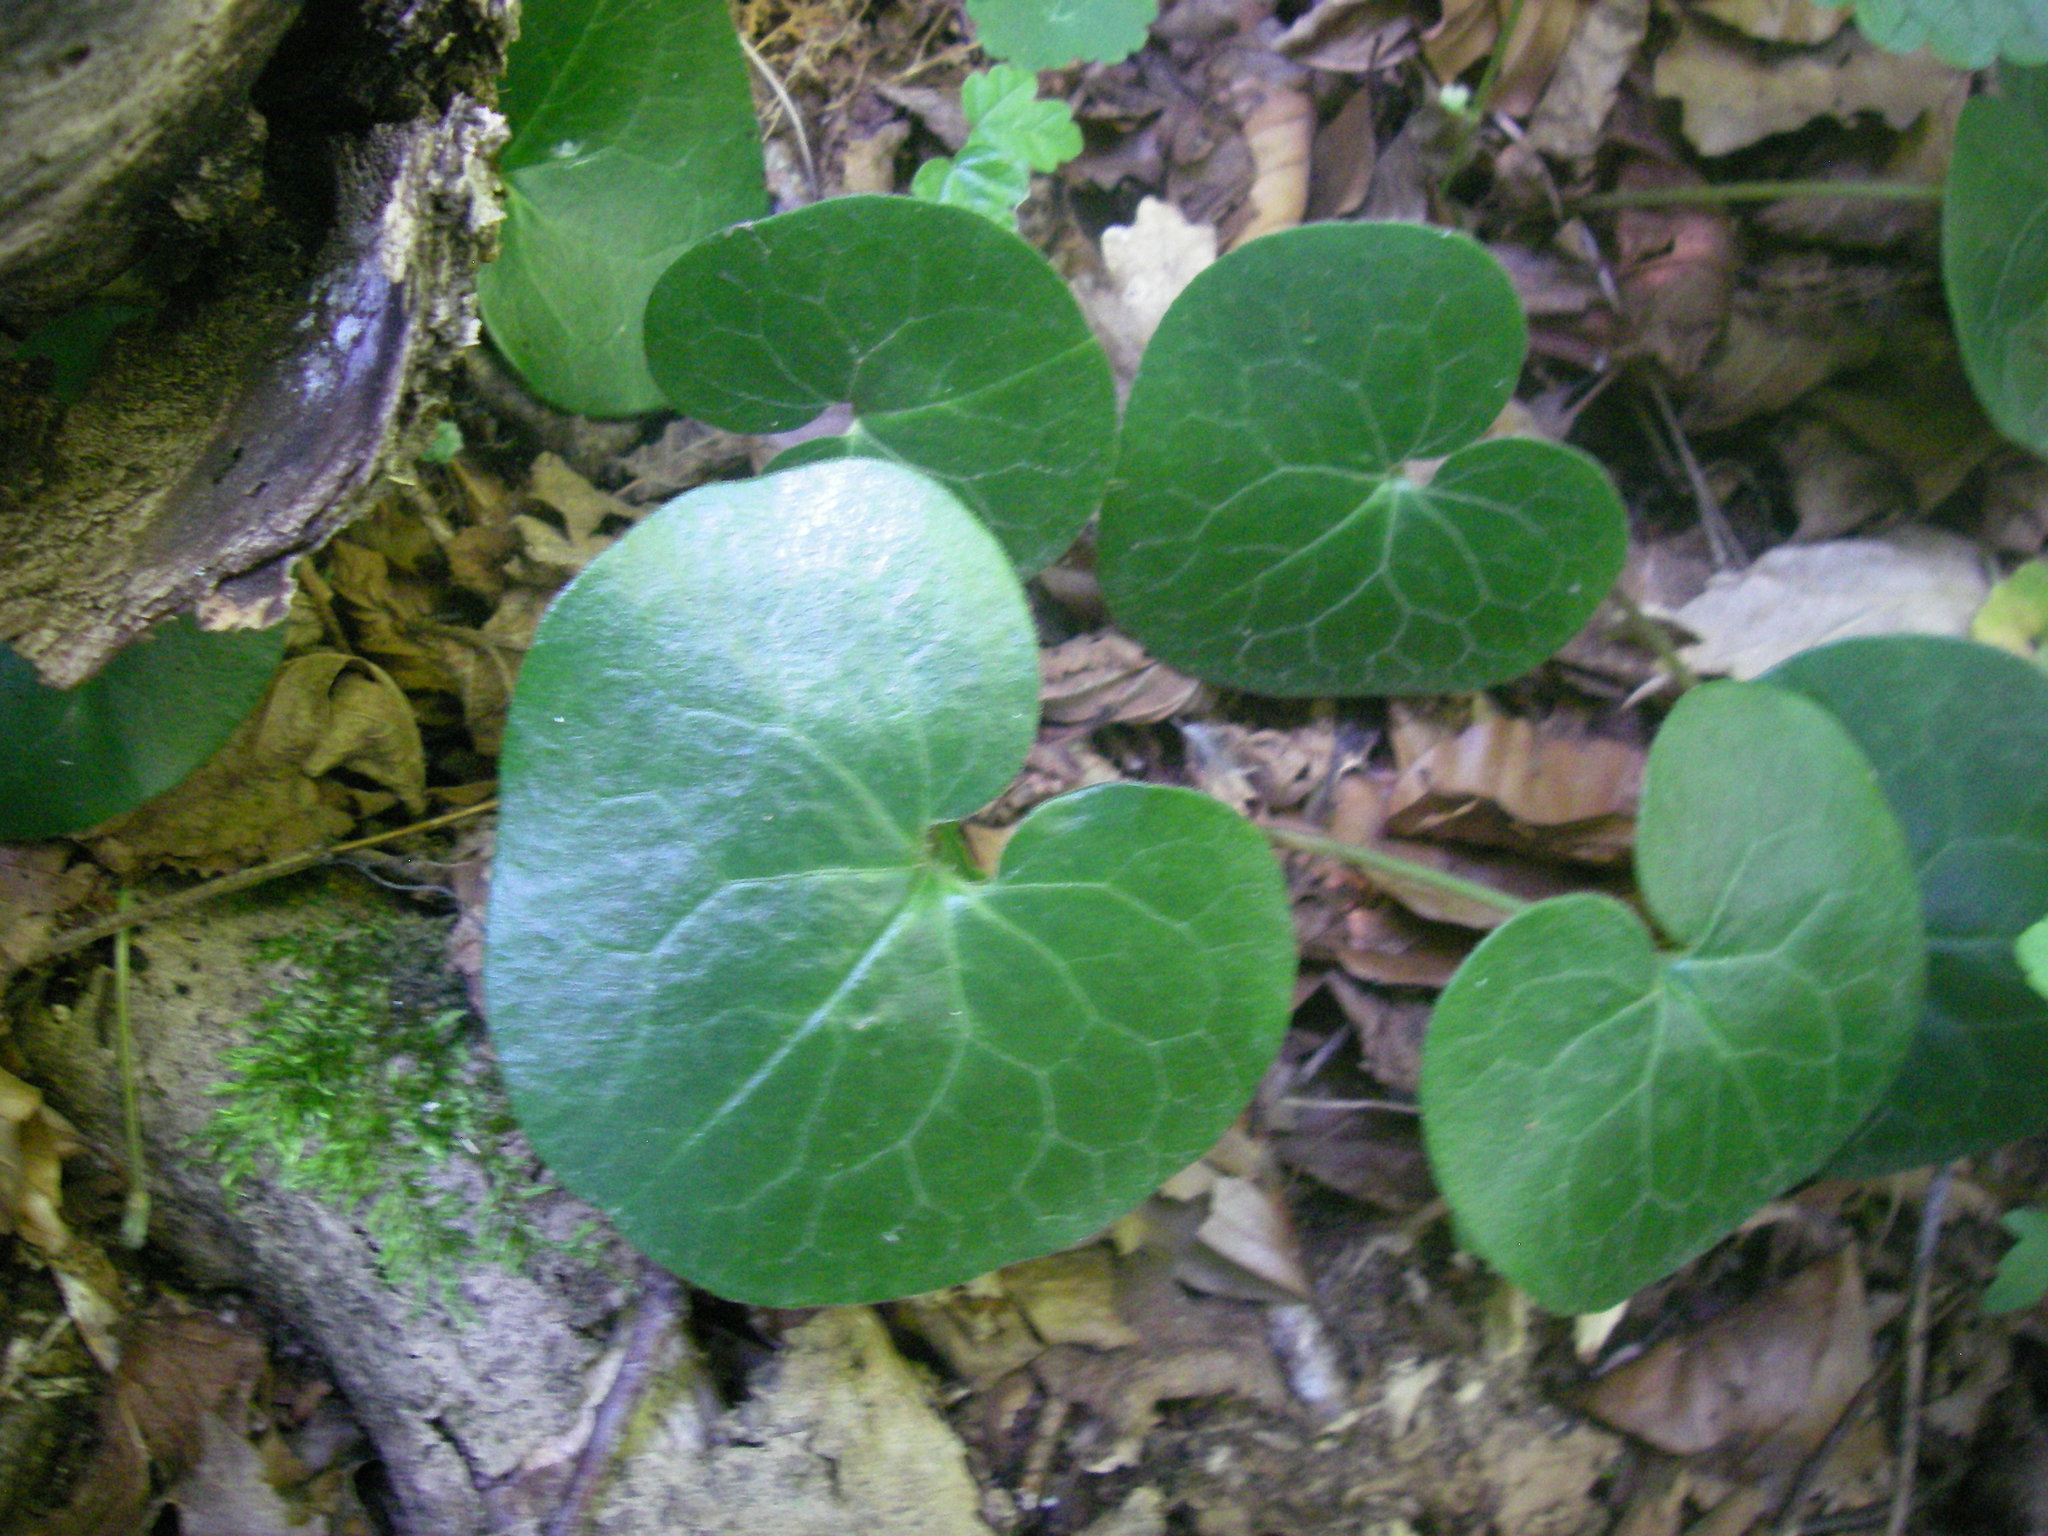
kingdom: Plantae
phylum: Tracheophyta
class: Magnoliopsida
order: Piperales
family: Aristolochiaceae
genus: Asarum
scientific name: Asarum europaeum
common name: Asarabacca
